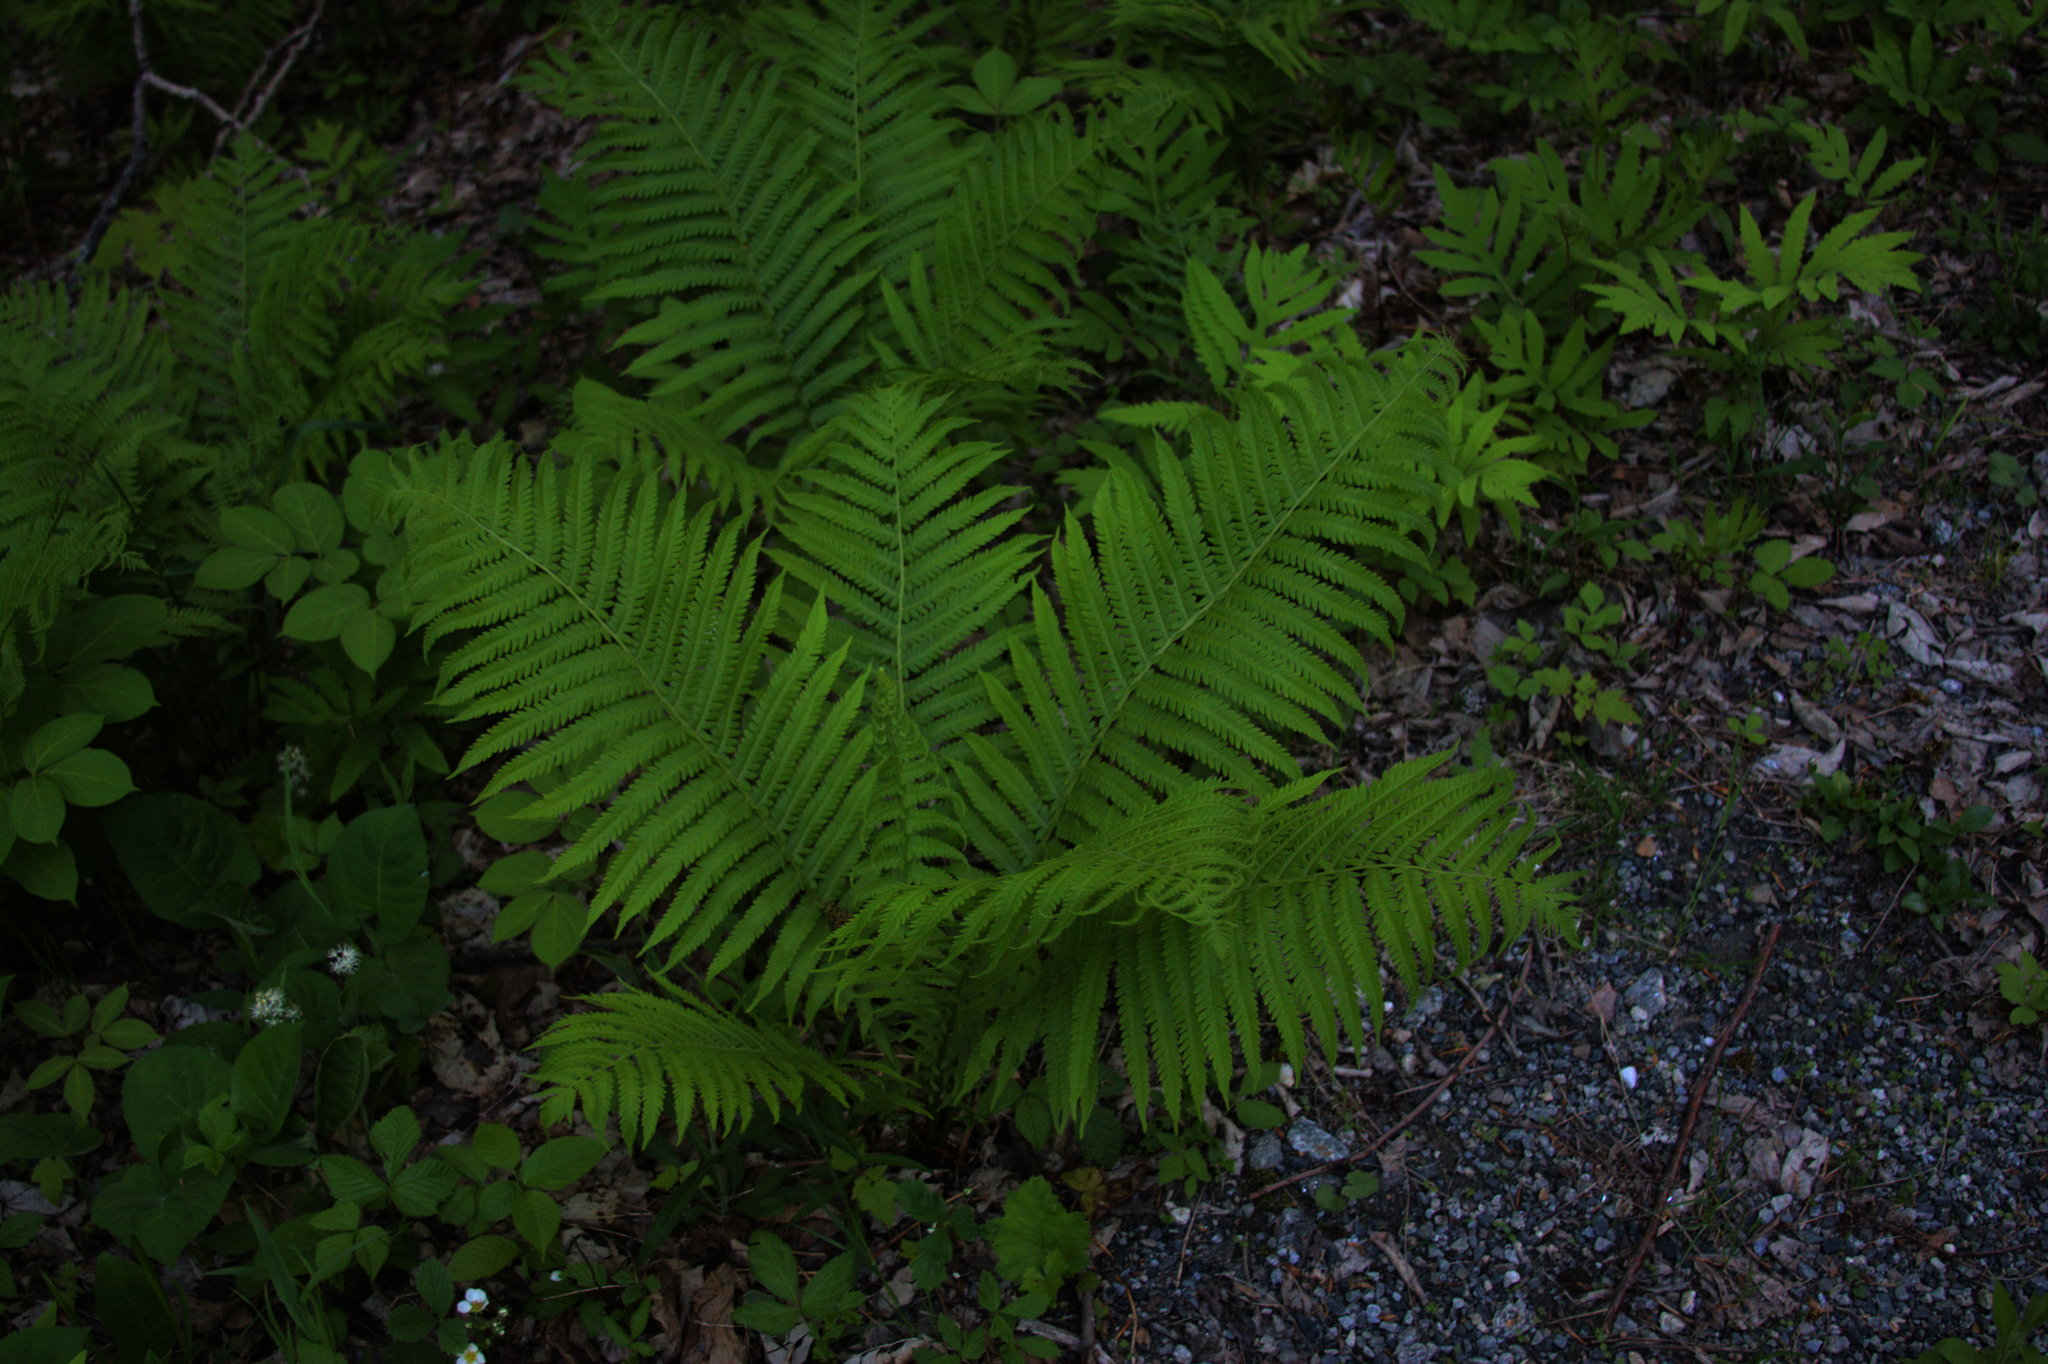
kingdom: Plantae
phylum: Tracheophyta
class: Polypodiopsida
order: Polypodiales
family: Onocleaceae
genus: Matteuccia
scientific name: Matteuccia struthiopteris
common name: Ostrich fern
